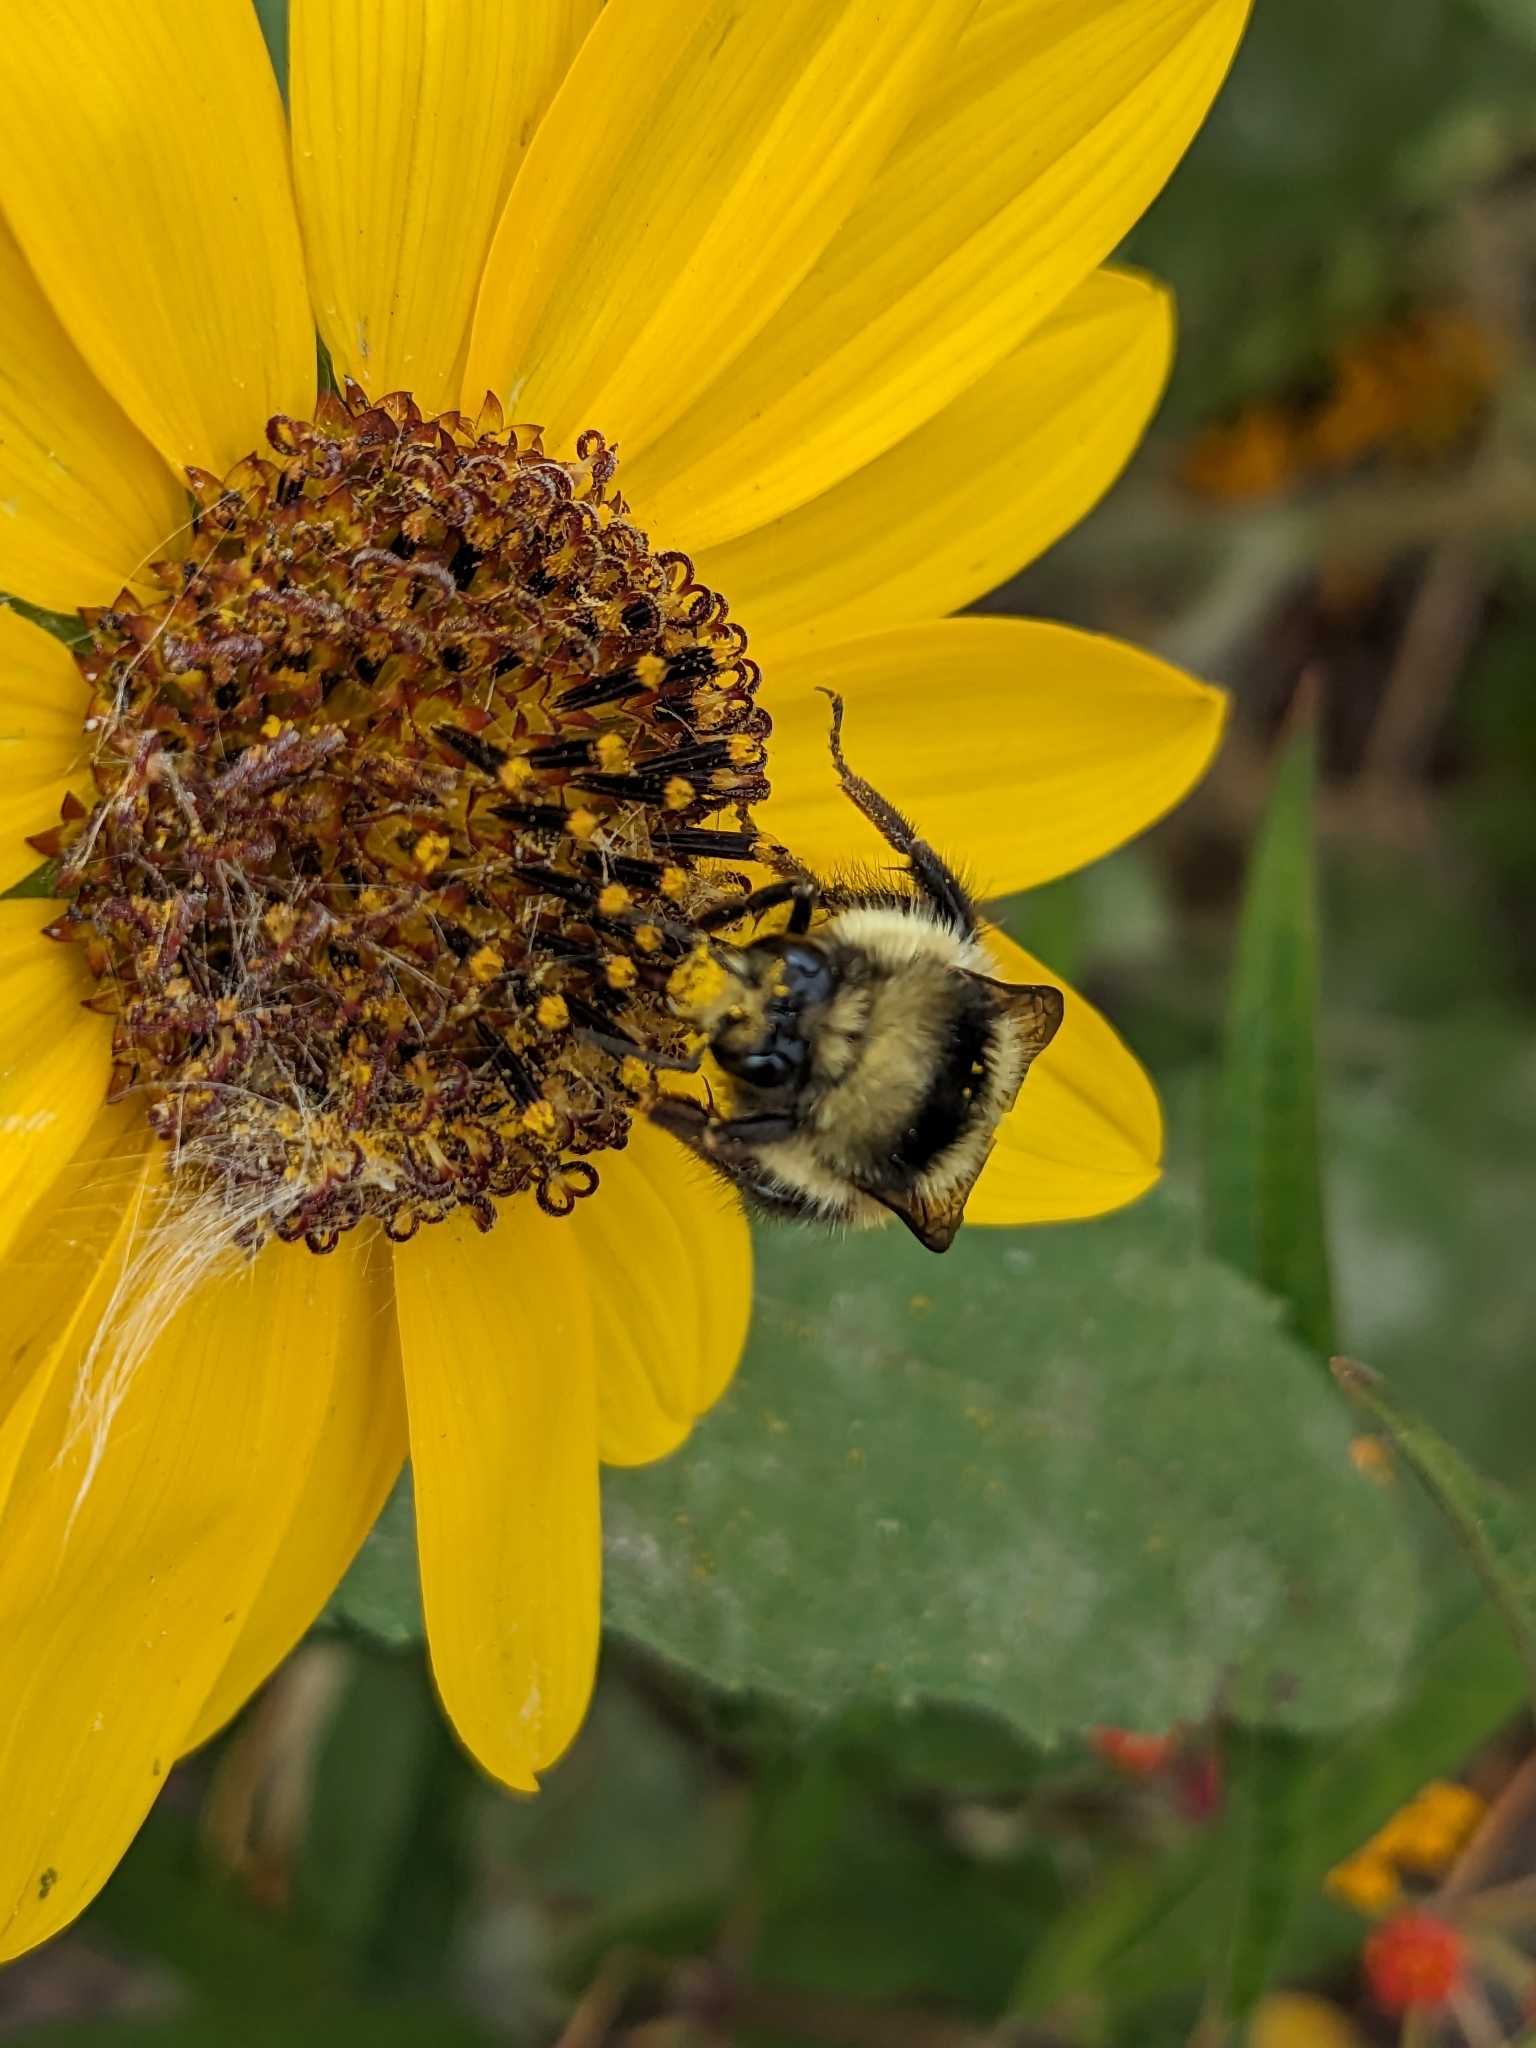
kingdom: Animalia
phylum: Arthropoda
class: Insecta
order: Hymenoptera
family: Apidae
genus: Bombus
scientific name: Bombus melanopygus
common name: Black tail bumble bee
